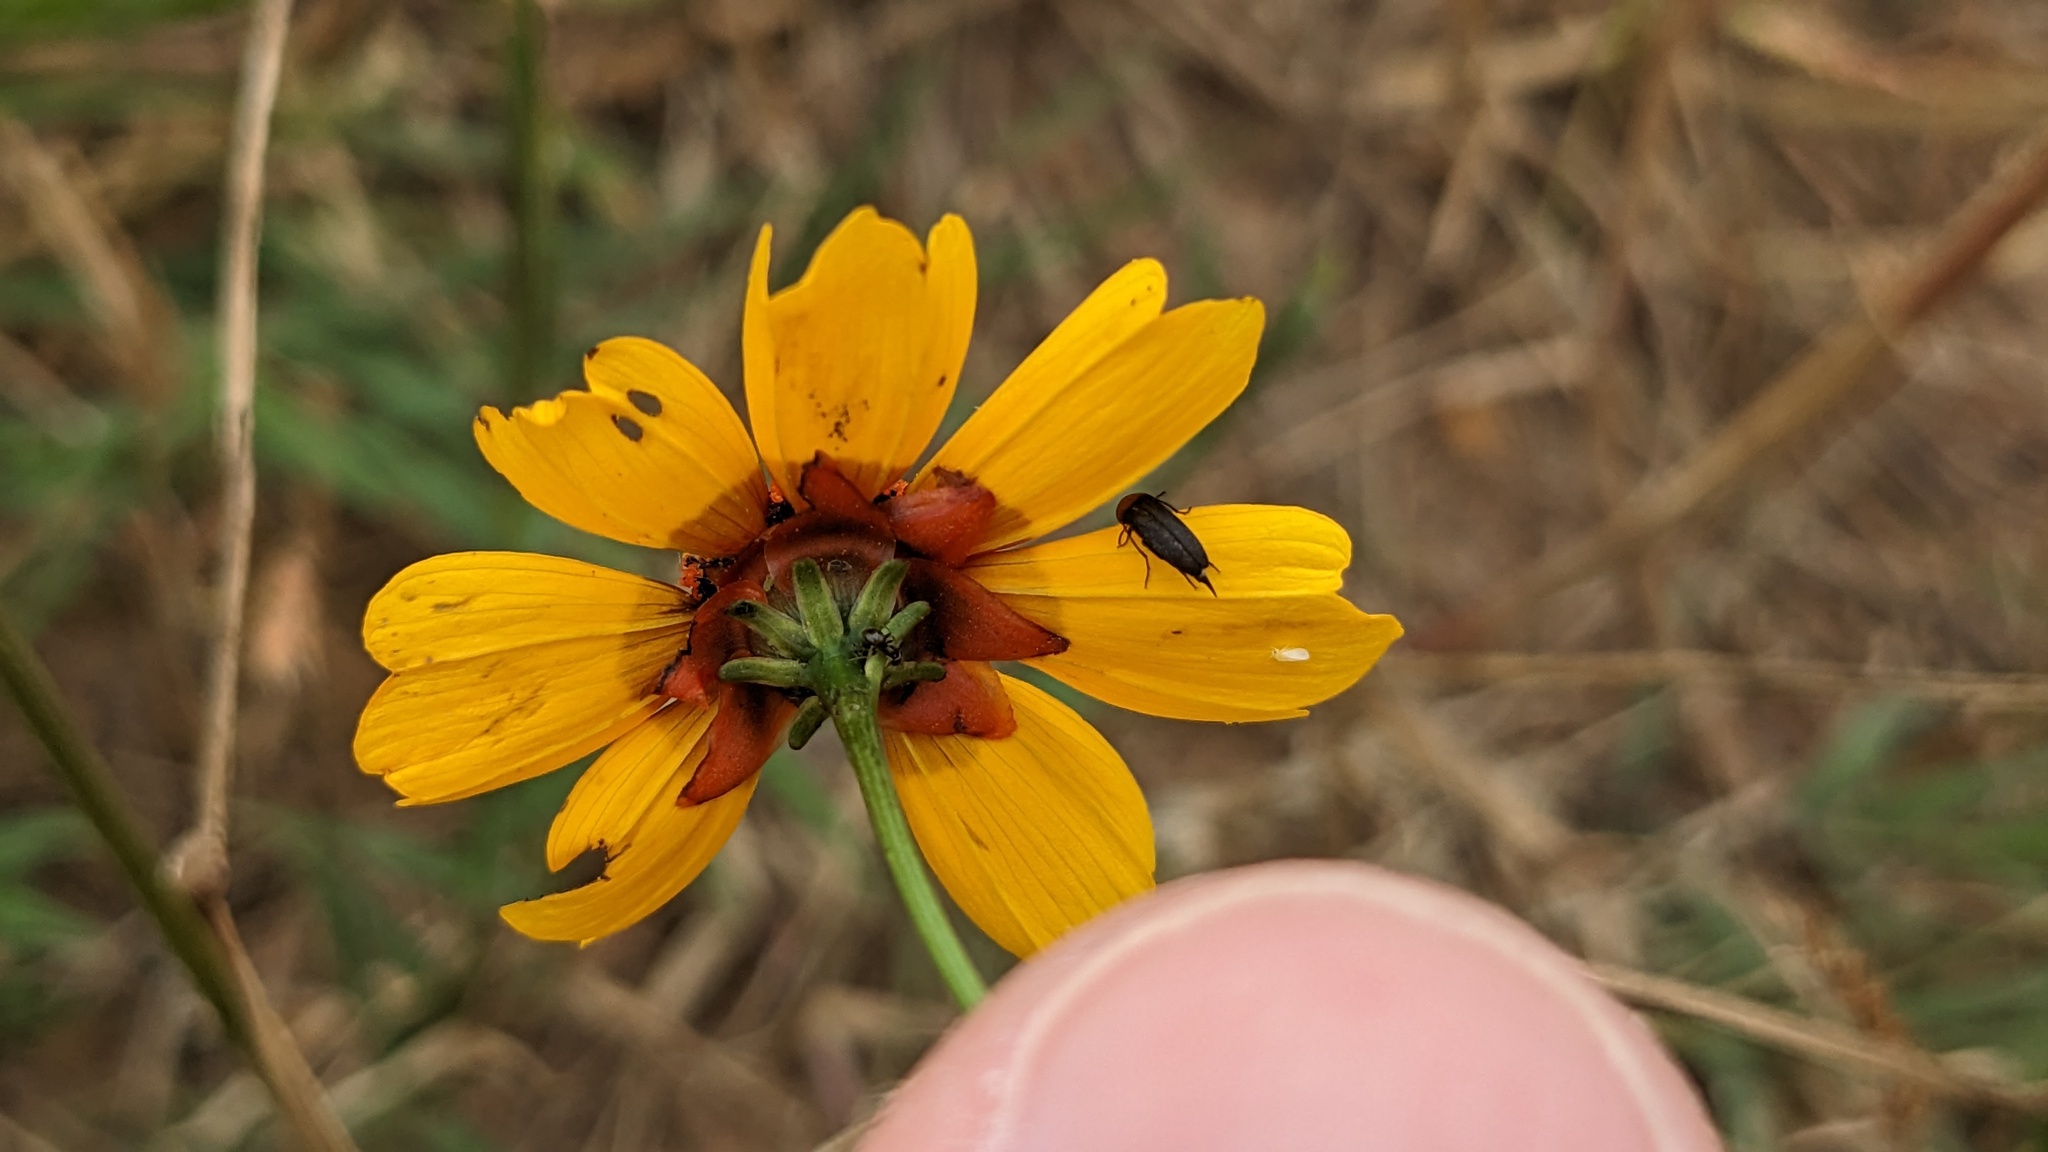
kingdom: Plantae
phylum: Tracheophyta
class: Magnoliopsida
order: Asterales
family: Asteraceae
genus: Coreopsis
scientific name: Coreopsis tinctoria
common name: Garden tickseed
